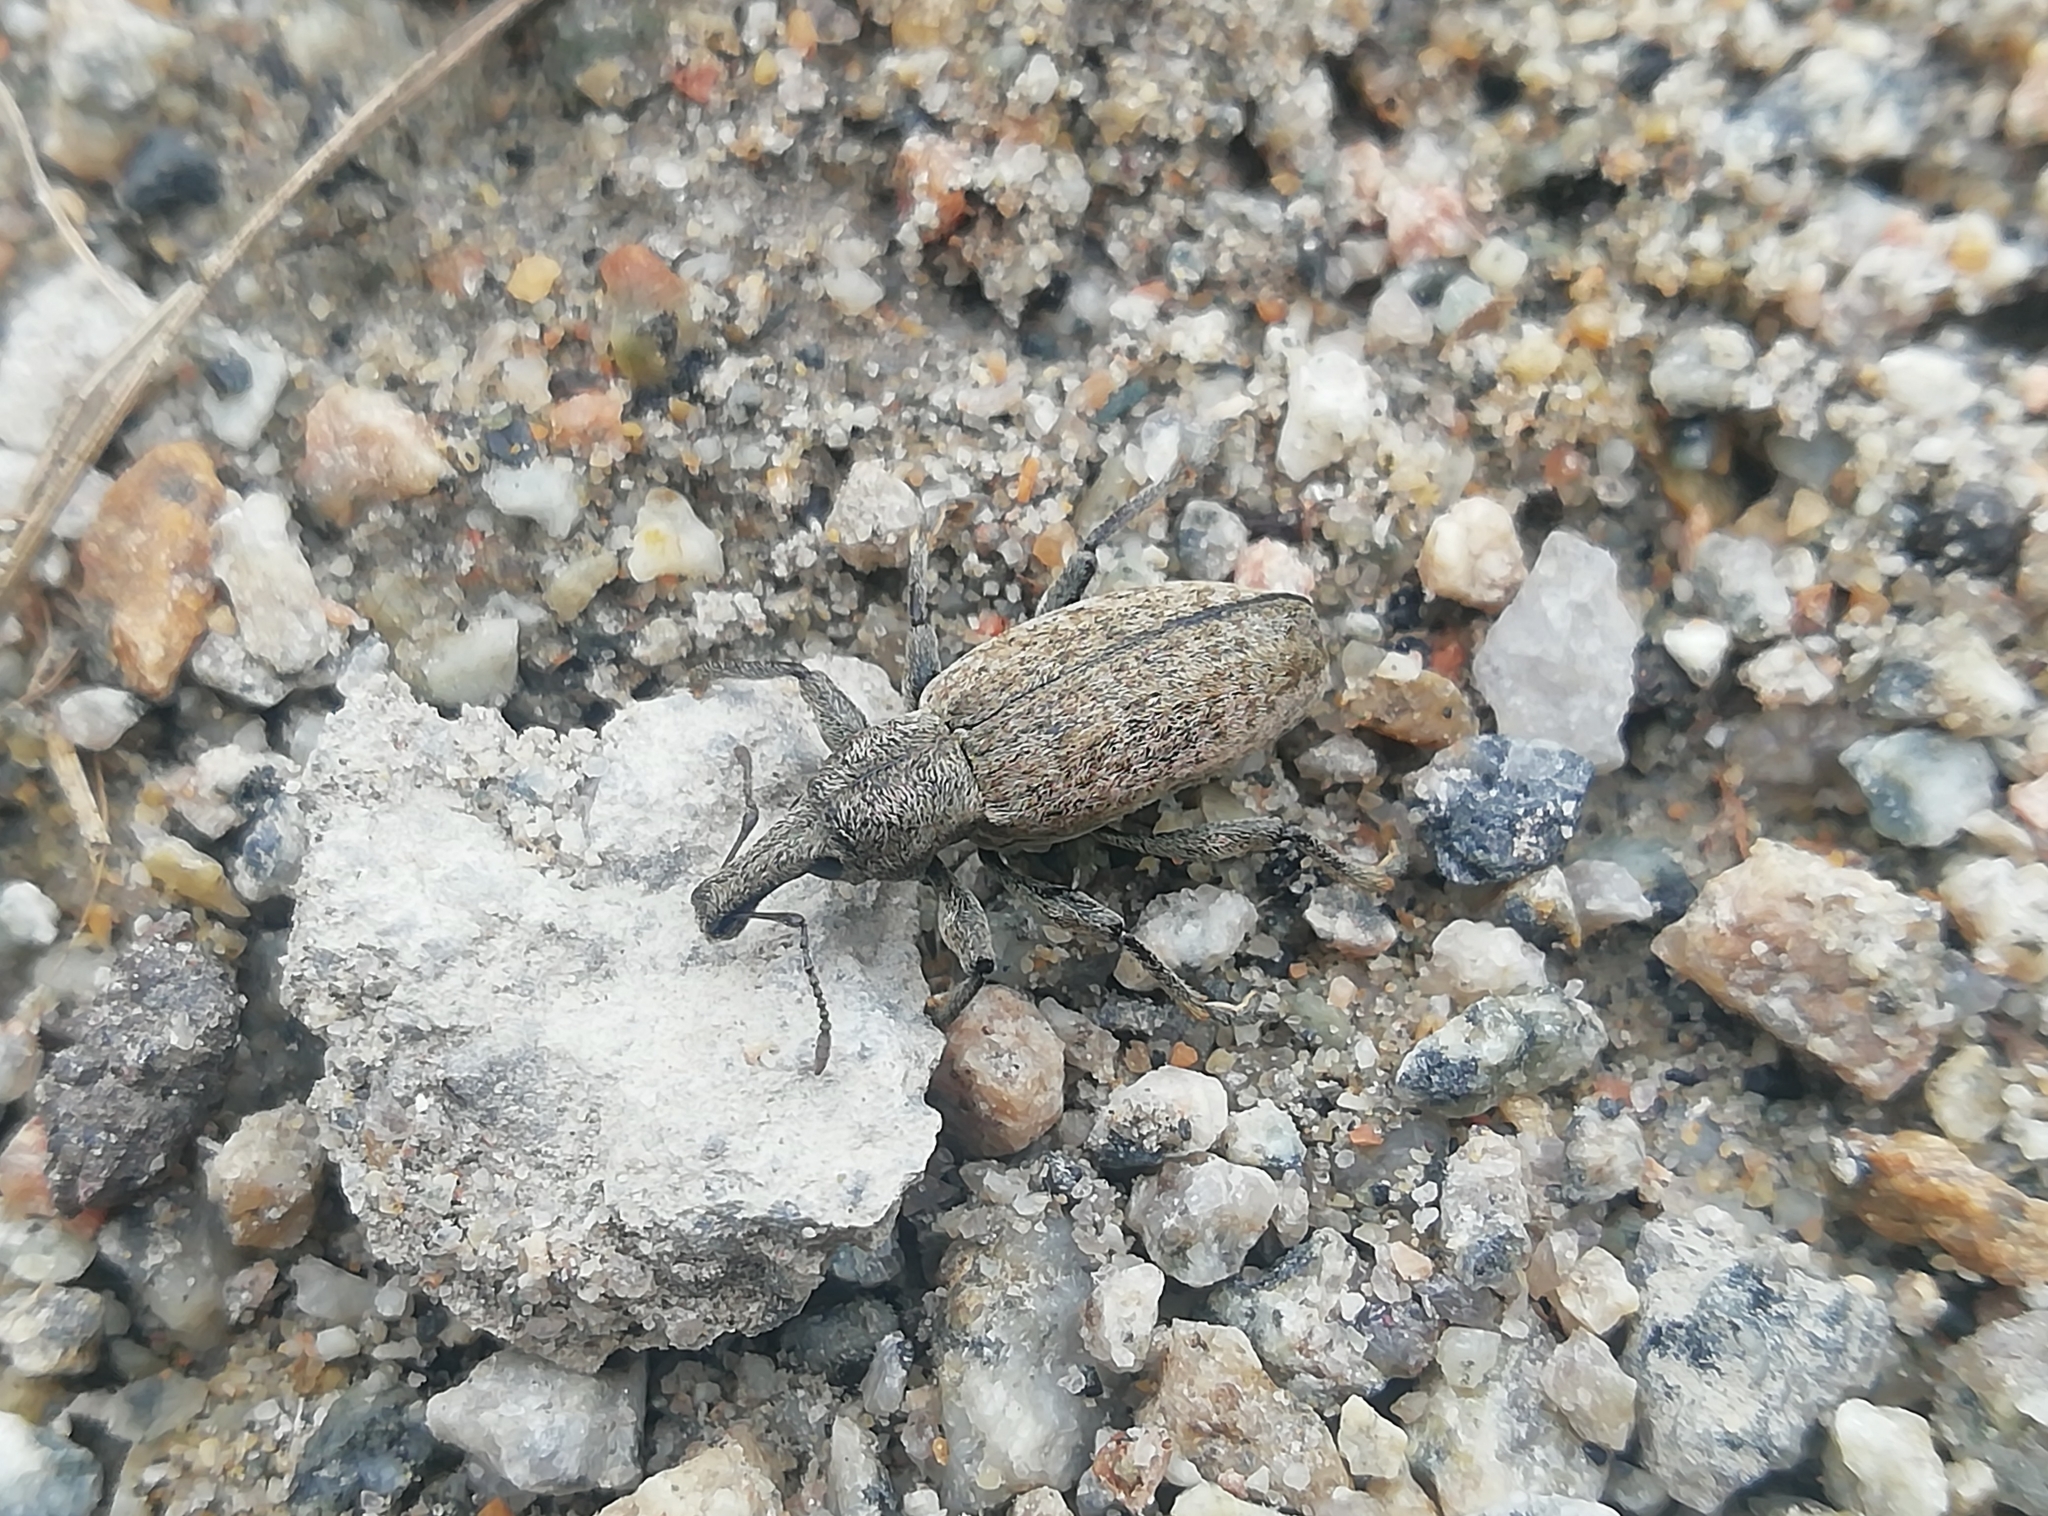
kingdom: Animalia
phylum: Arthropoda
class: Insecta
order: Coleoptera
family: Curculionidae
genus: Trichalophus
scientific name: Trichalophus boeberi
